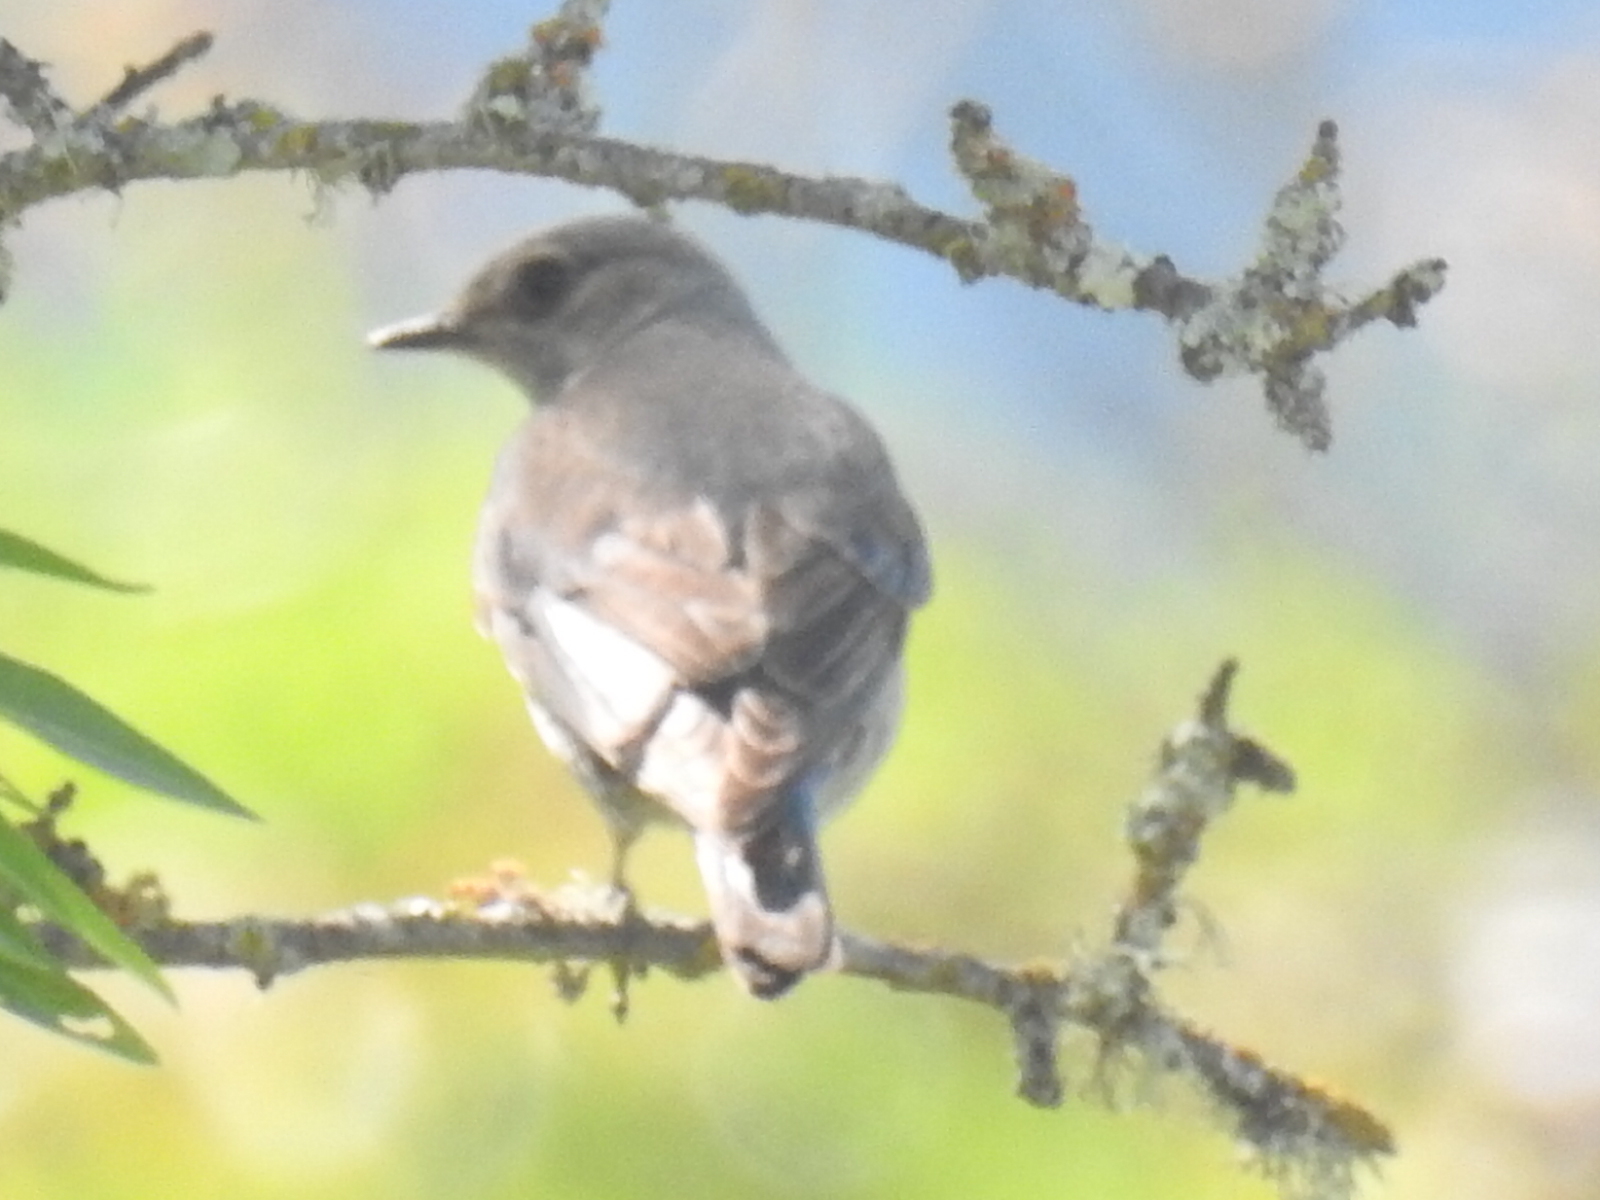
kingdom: Animalia
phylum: Chordata
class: Aves
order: Passeriformes
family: Turdidae
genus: Sialia
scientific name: Sialia mexicana
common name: Western bluebird
